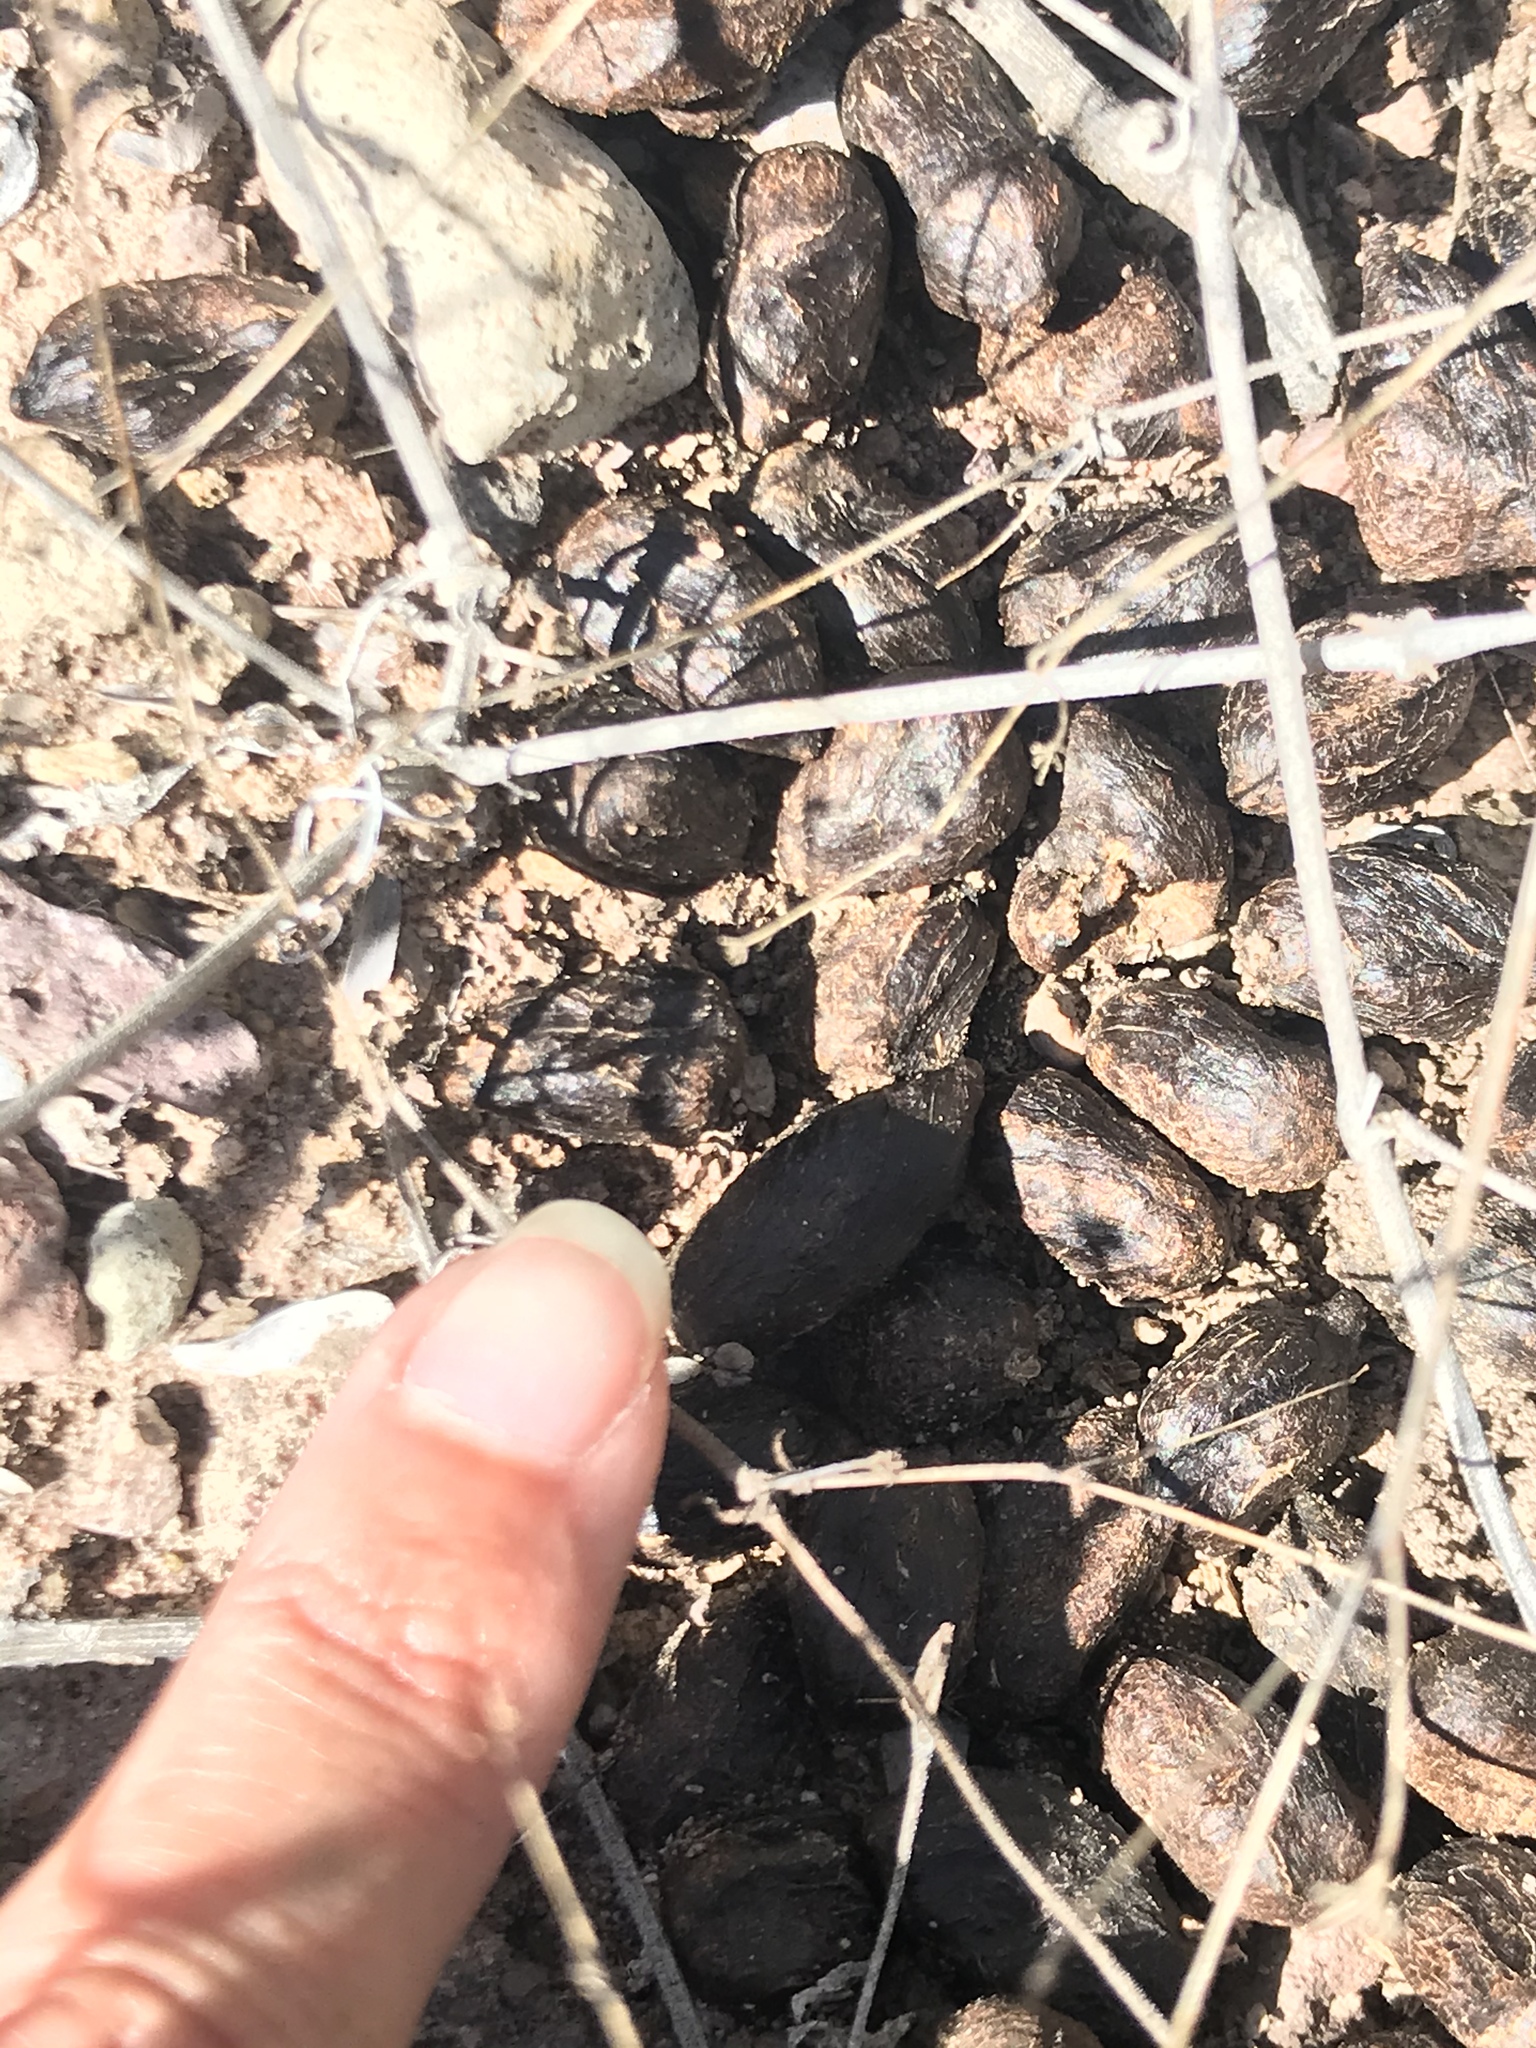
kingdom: Animalia
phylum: Chordata
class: Mammalia
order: Artiodactyla
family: Bovidae
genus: Ovis
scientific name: Ovis canadensis
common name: Bighorn sheep
